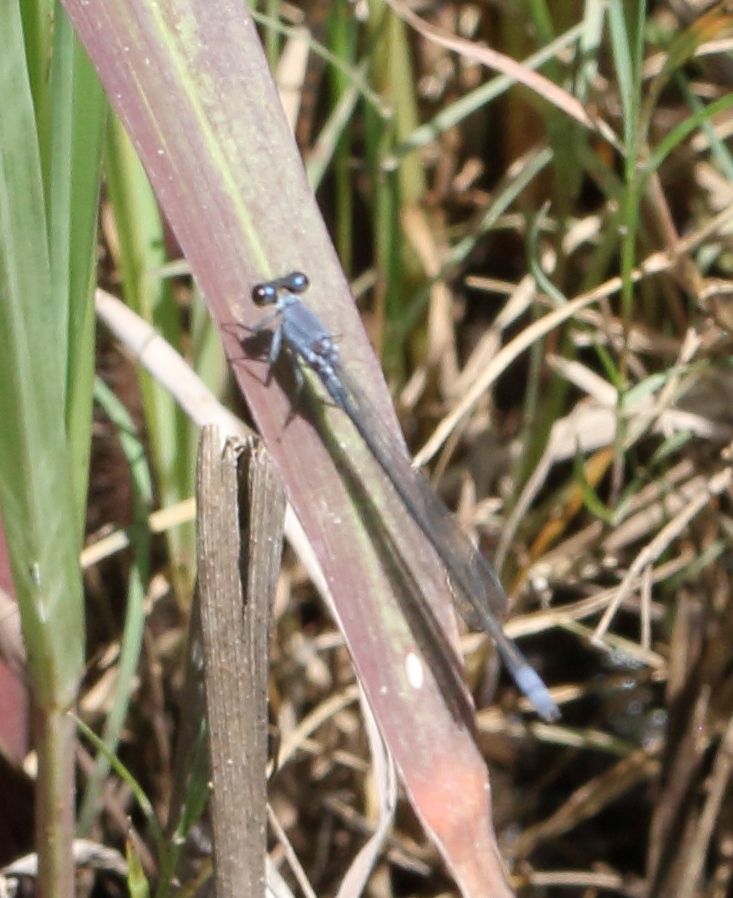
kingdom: Animalia
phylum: Arthropoda
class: Insecta
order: Odonata
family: Coenagrionidae
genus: Pseudagrion
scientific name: Pseudagrion salisburyense
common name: Slate sprite
